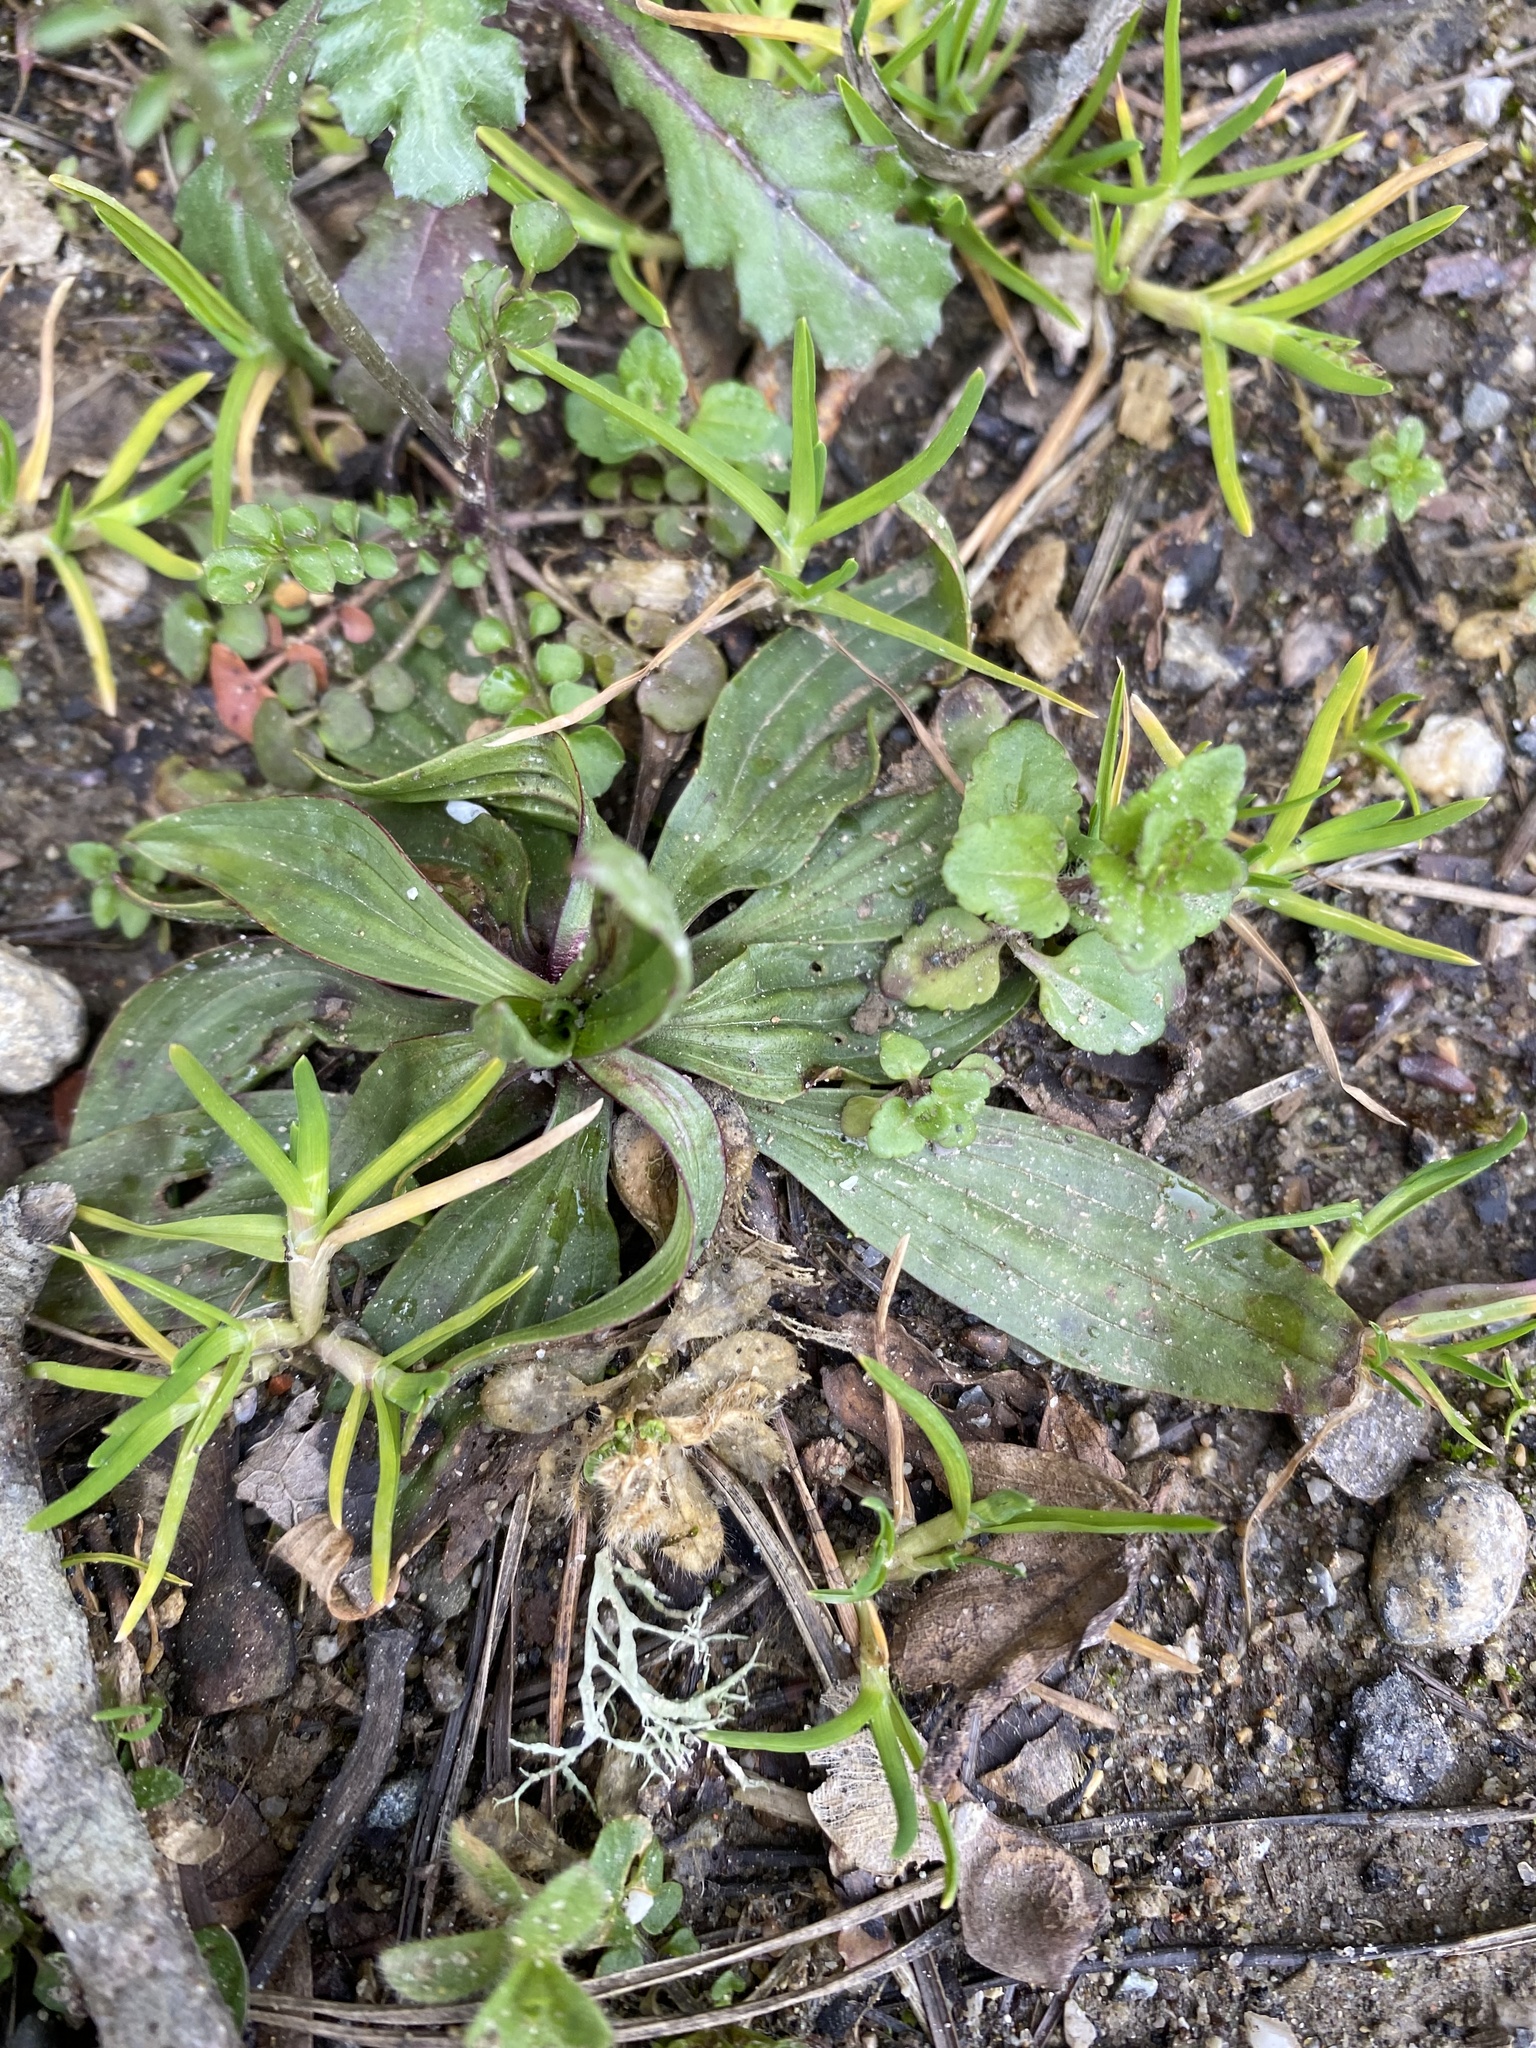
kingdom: Plantae
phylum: Tracheophyta
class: Magnoliopsida
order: Lamiales
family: Plantaginaceae
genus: Plantago
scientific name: Plantago lanceolata
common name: Ribwort plantain
